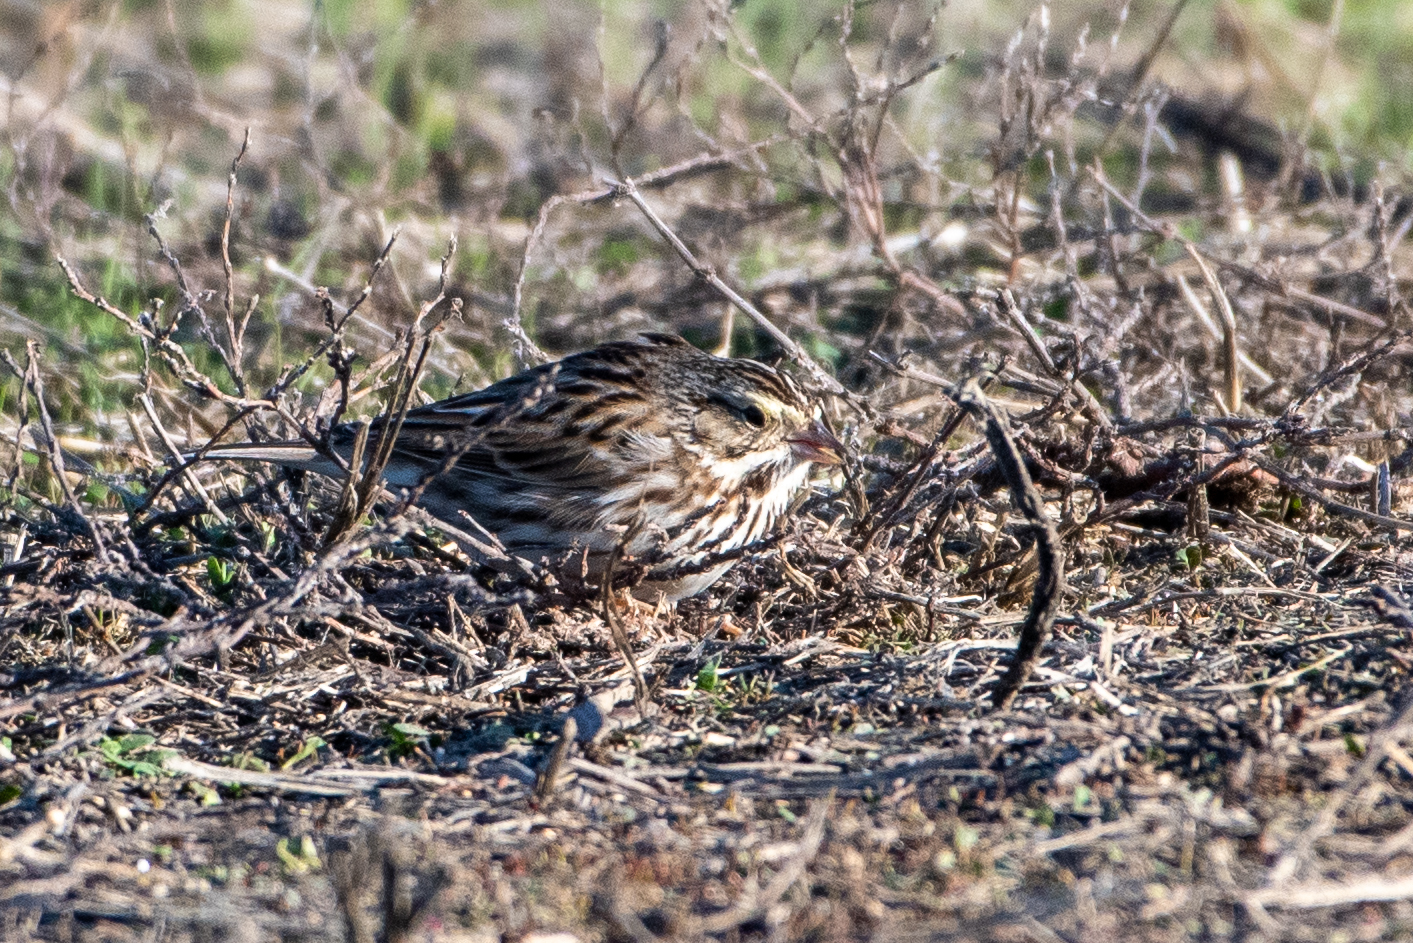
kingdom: Animalia
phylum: Chordata
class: Aves
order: Passeriformes
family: Passerellidae
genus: Passerculus
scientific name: Passerculus sandwichensis
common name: Savannah sparrow
